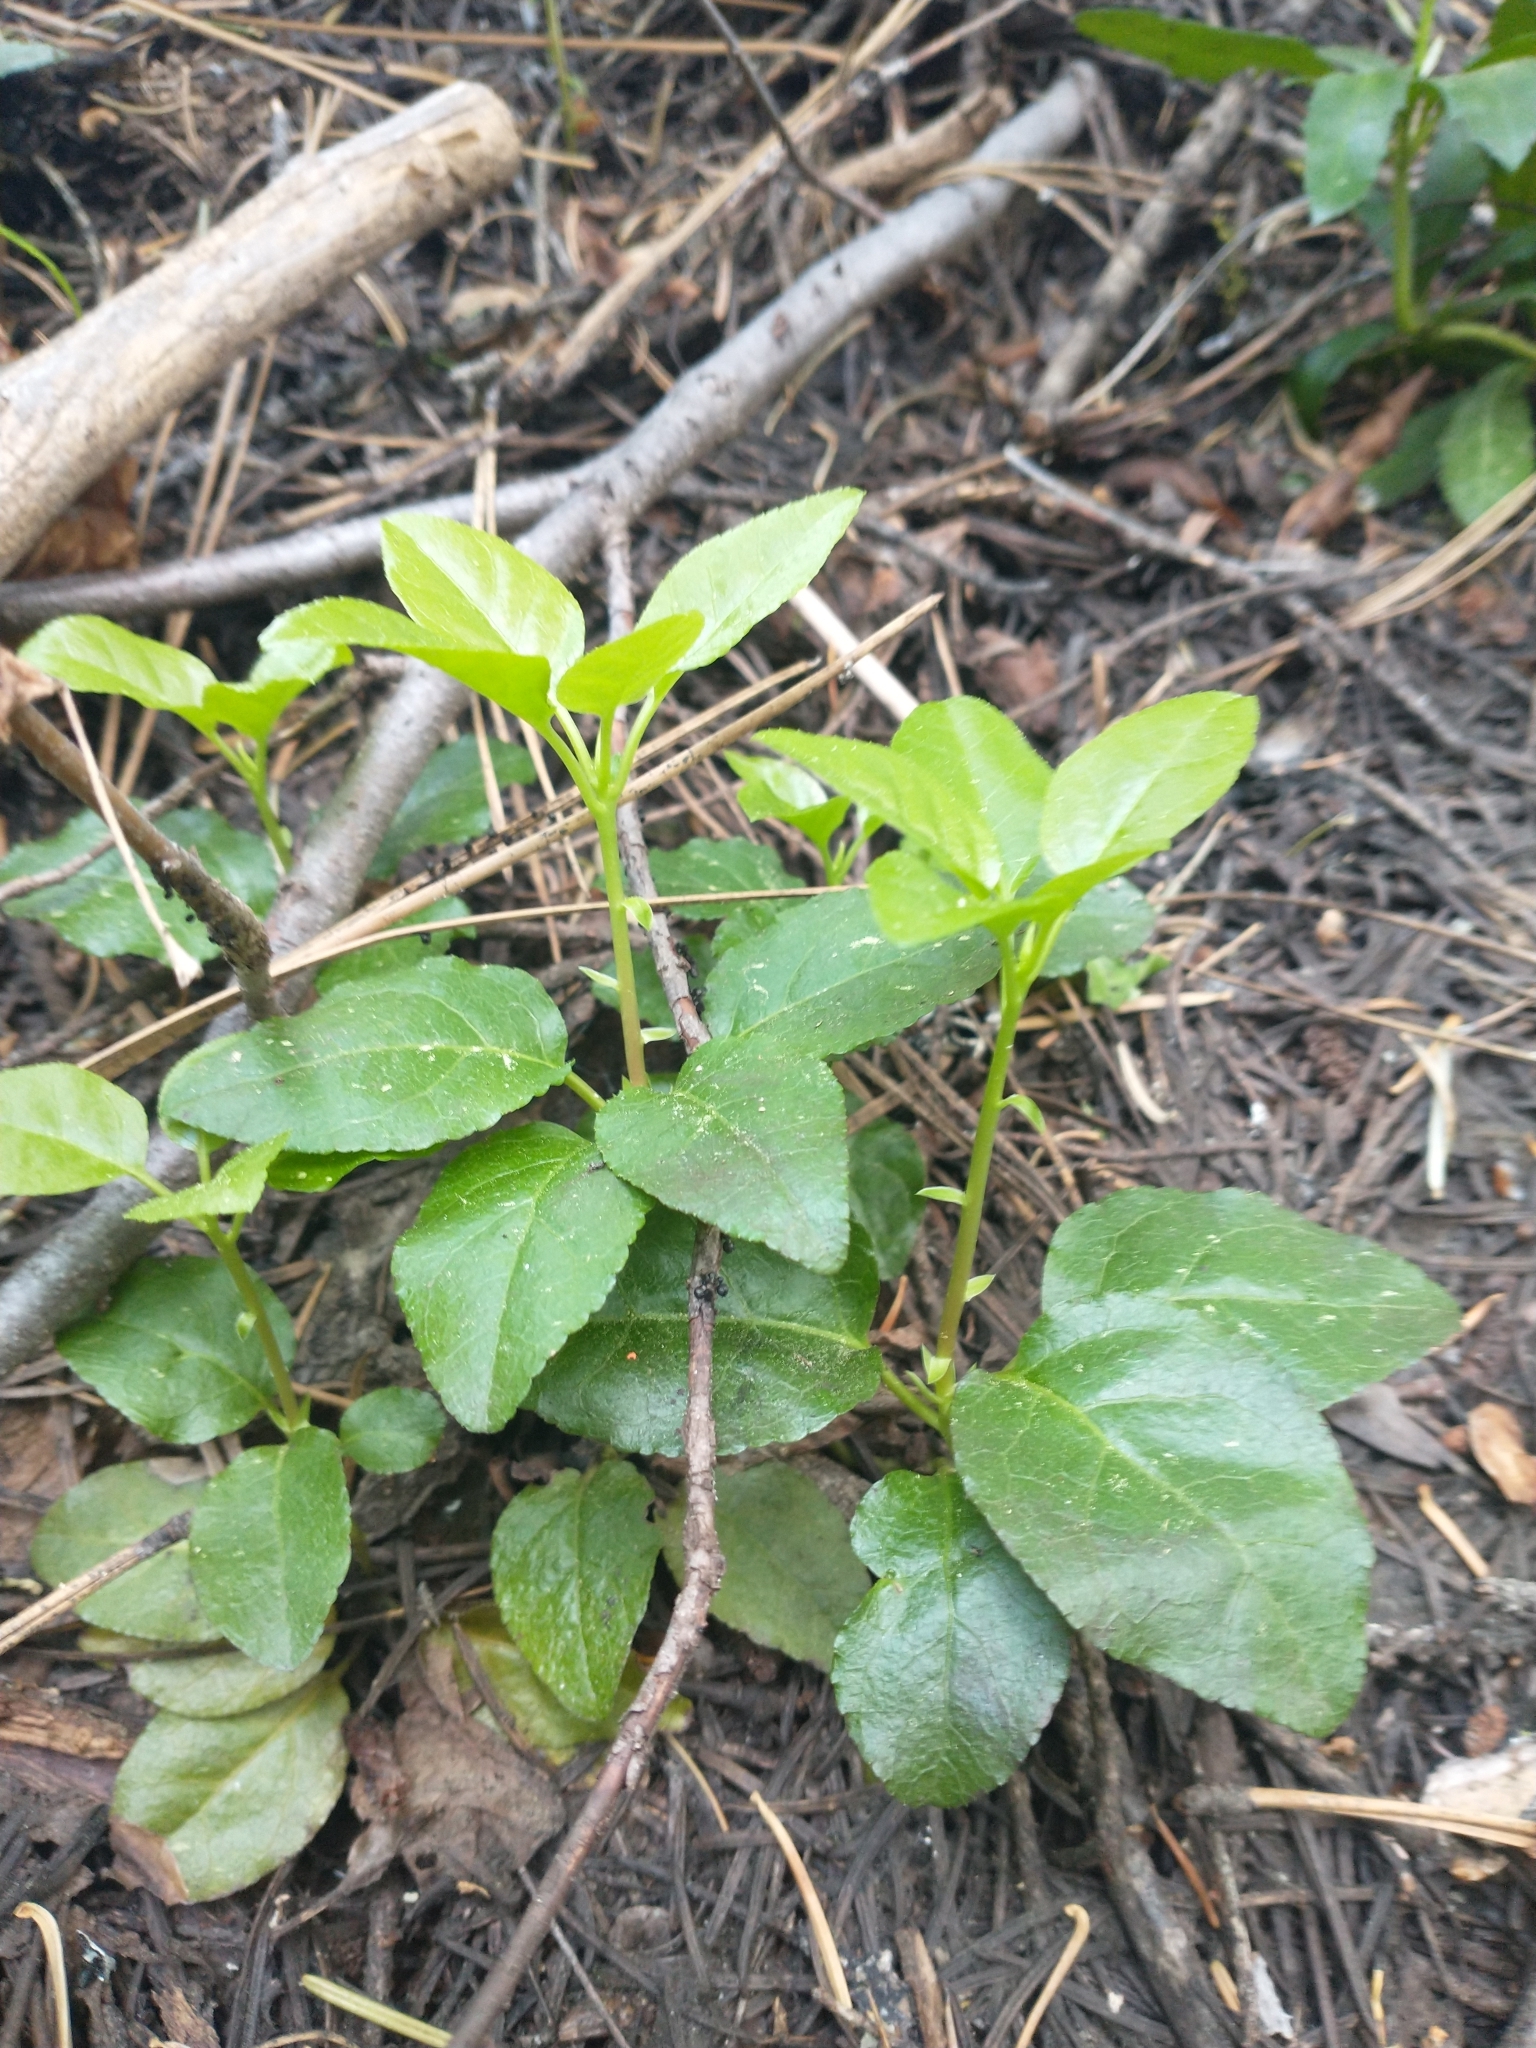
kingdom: Plantae
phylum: Tracheophyta
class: Magnoliopsida
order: Ericales
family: Ericaceae
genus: Orthilia
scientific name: Orthilia secunda
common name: One-sided orthilia
